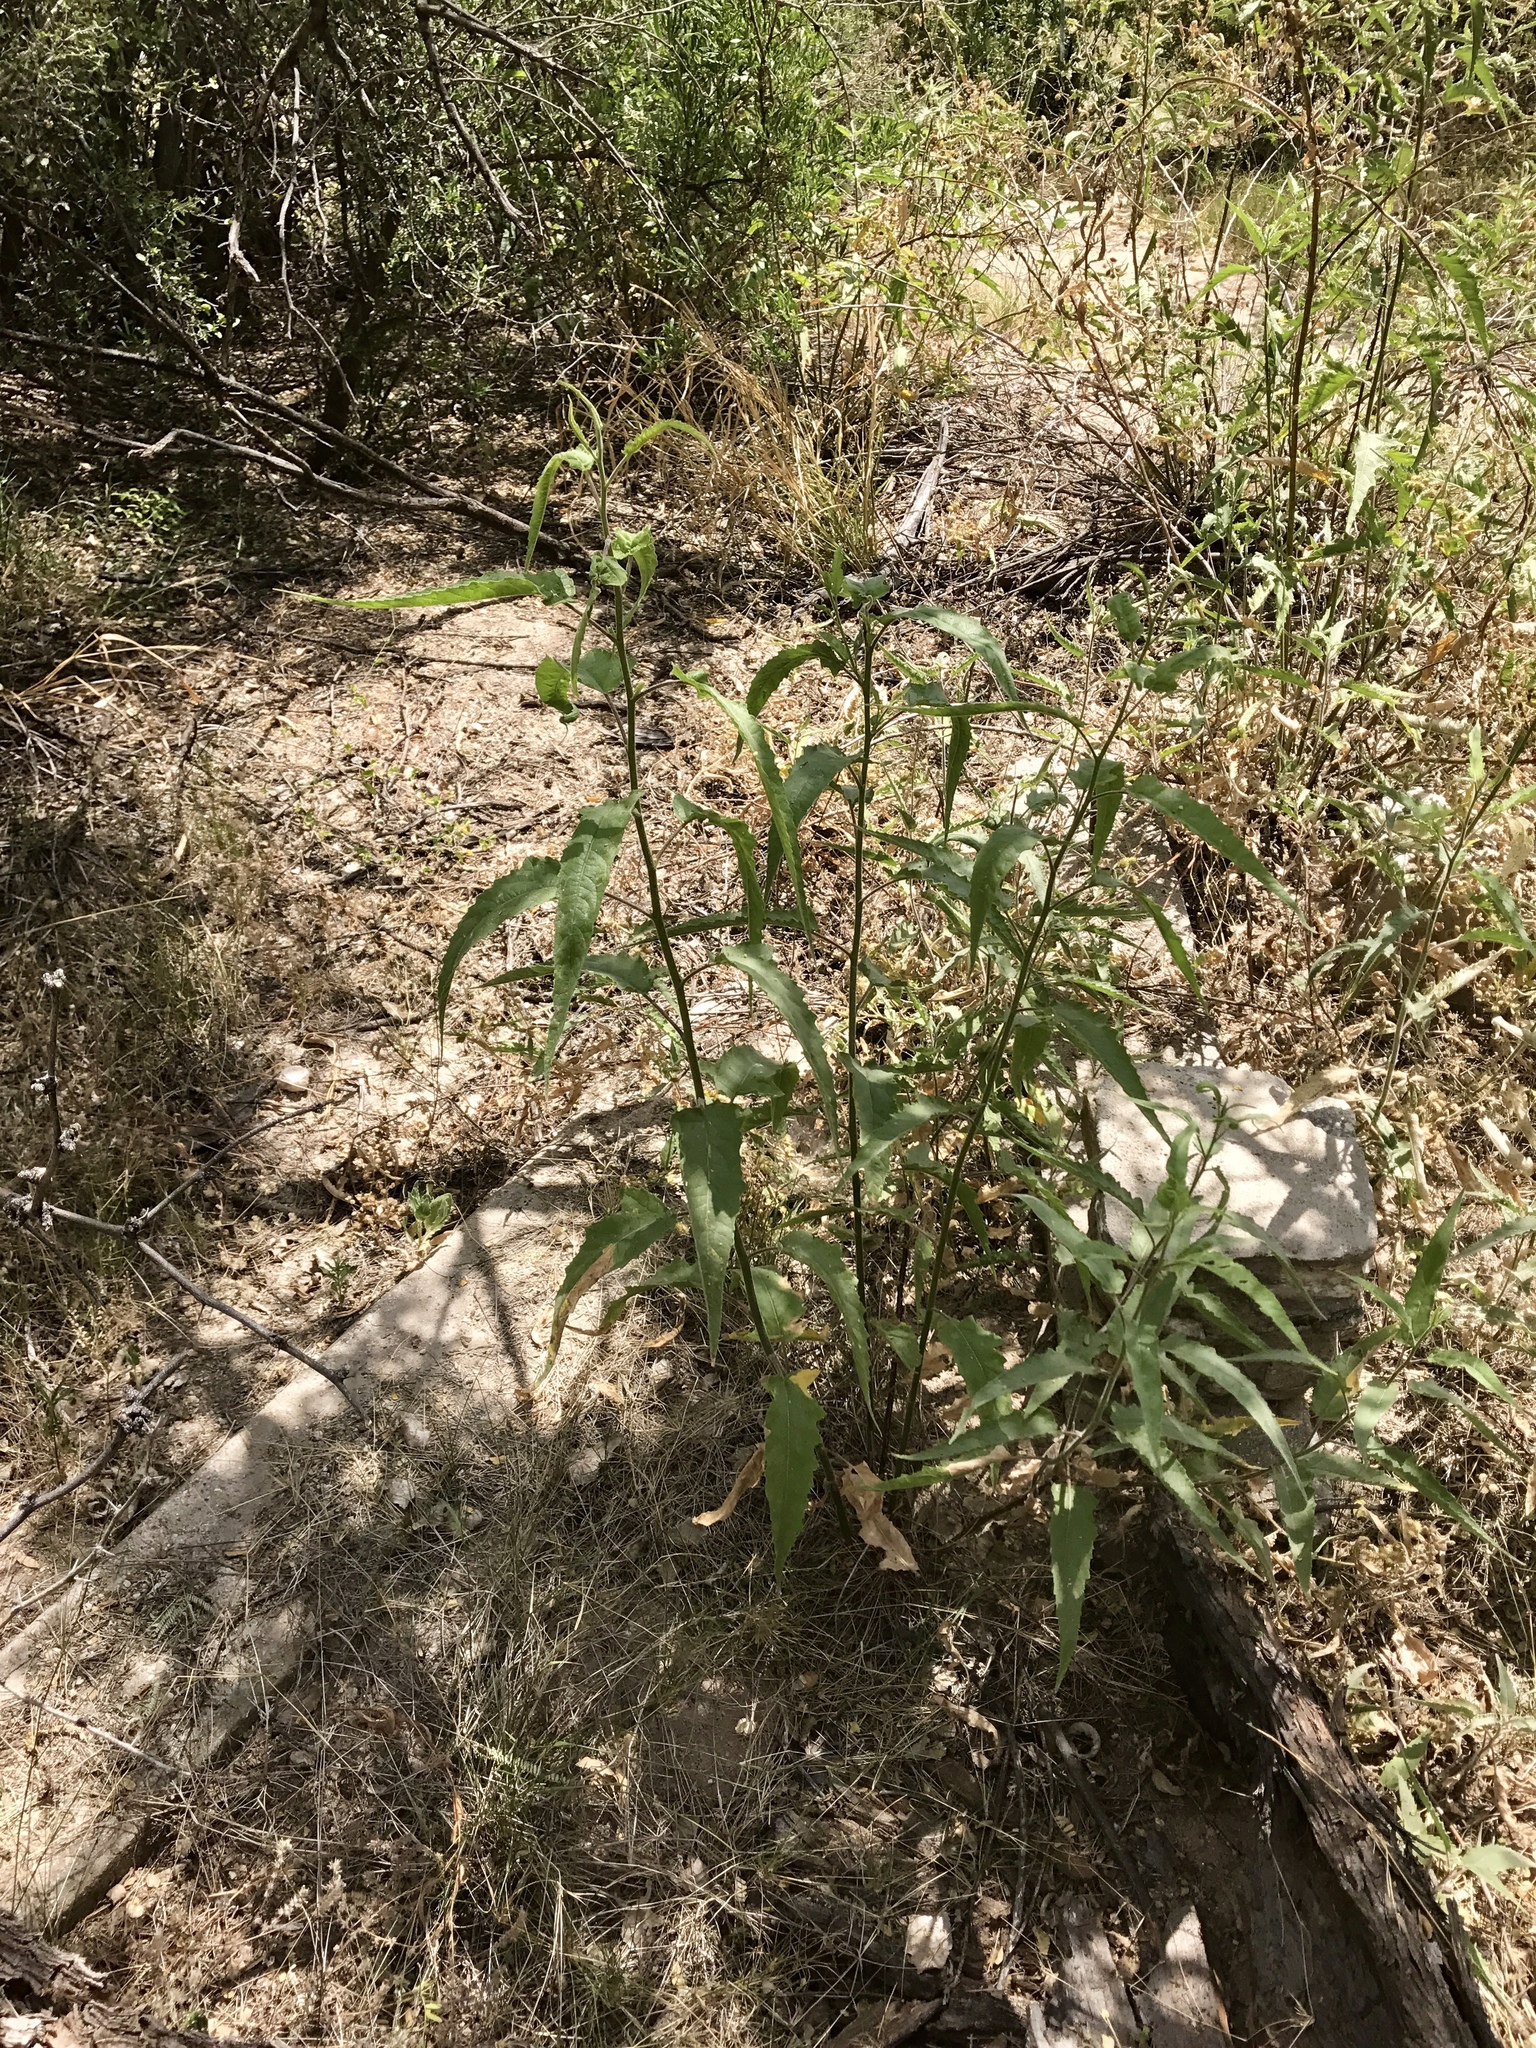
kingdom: Plantae
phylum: Tracheophyta
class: Magnoliopsida
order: Asterales
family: Asteraceae
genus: Ambrosia
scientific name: Ambrosia ambrosioides
